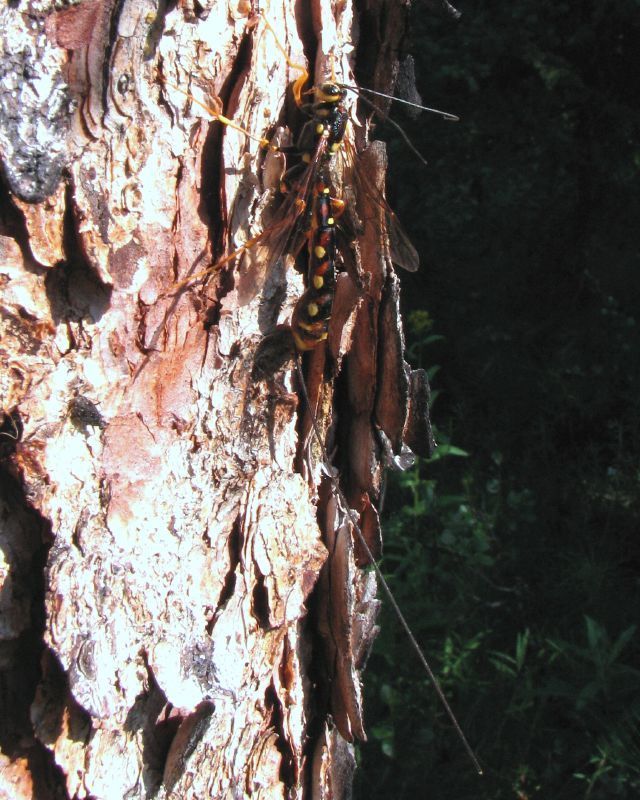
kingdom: Animalia
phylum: Arthropoda
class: Insecta
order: Hymenoptera
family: Ichneumonidae
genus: Megarhyssa
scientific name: Megarhyssa nortoni
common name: Norton's giant ichneumonid wasp
